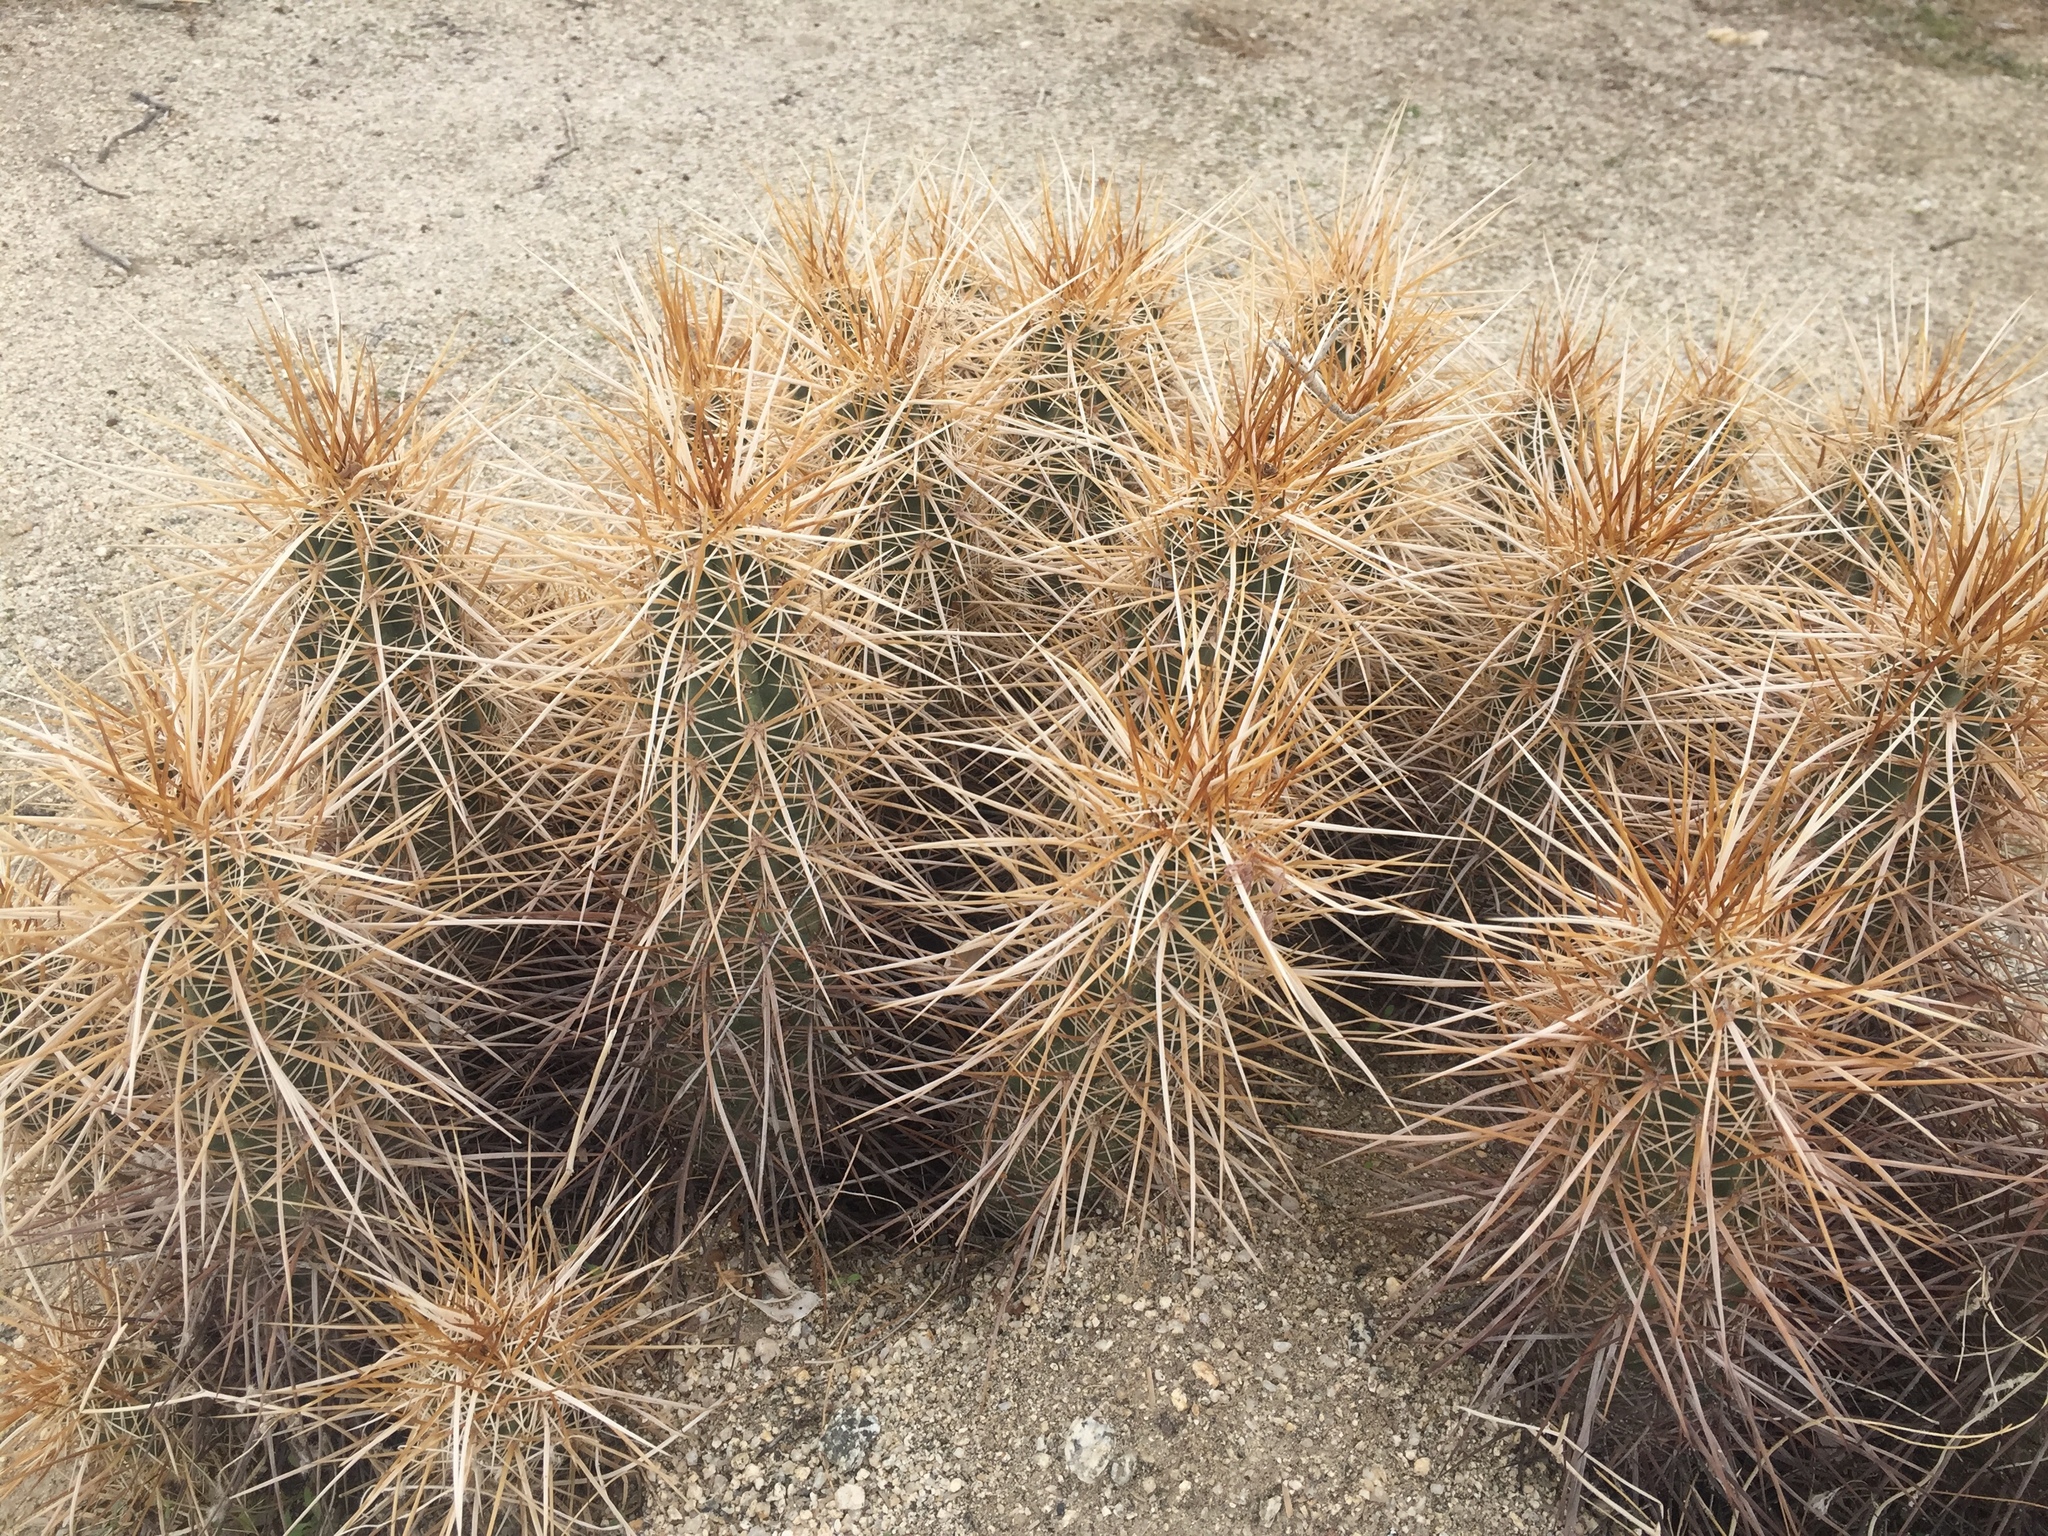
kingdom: Plantae
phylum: Tracheophyta
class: Magnoliopsida
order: Caryophyllales
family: Cactaceae
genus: Echinocereus
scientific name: Echinocereus engelmannii
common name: Engelmann's hedgehog cactus
